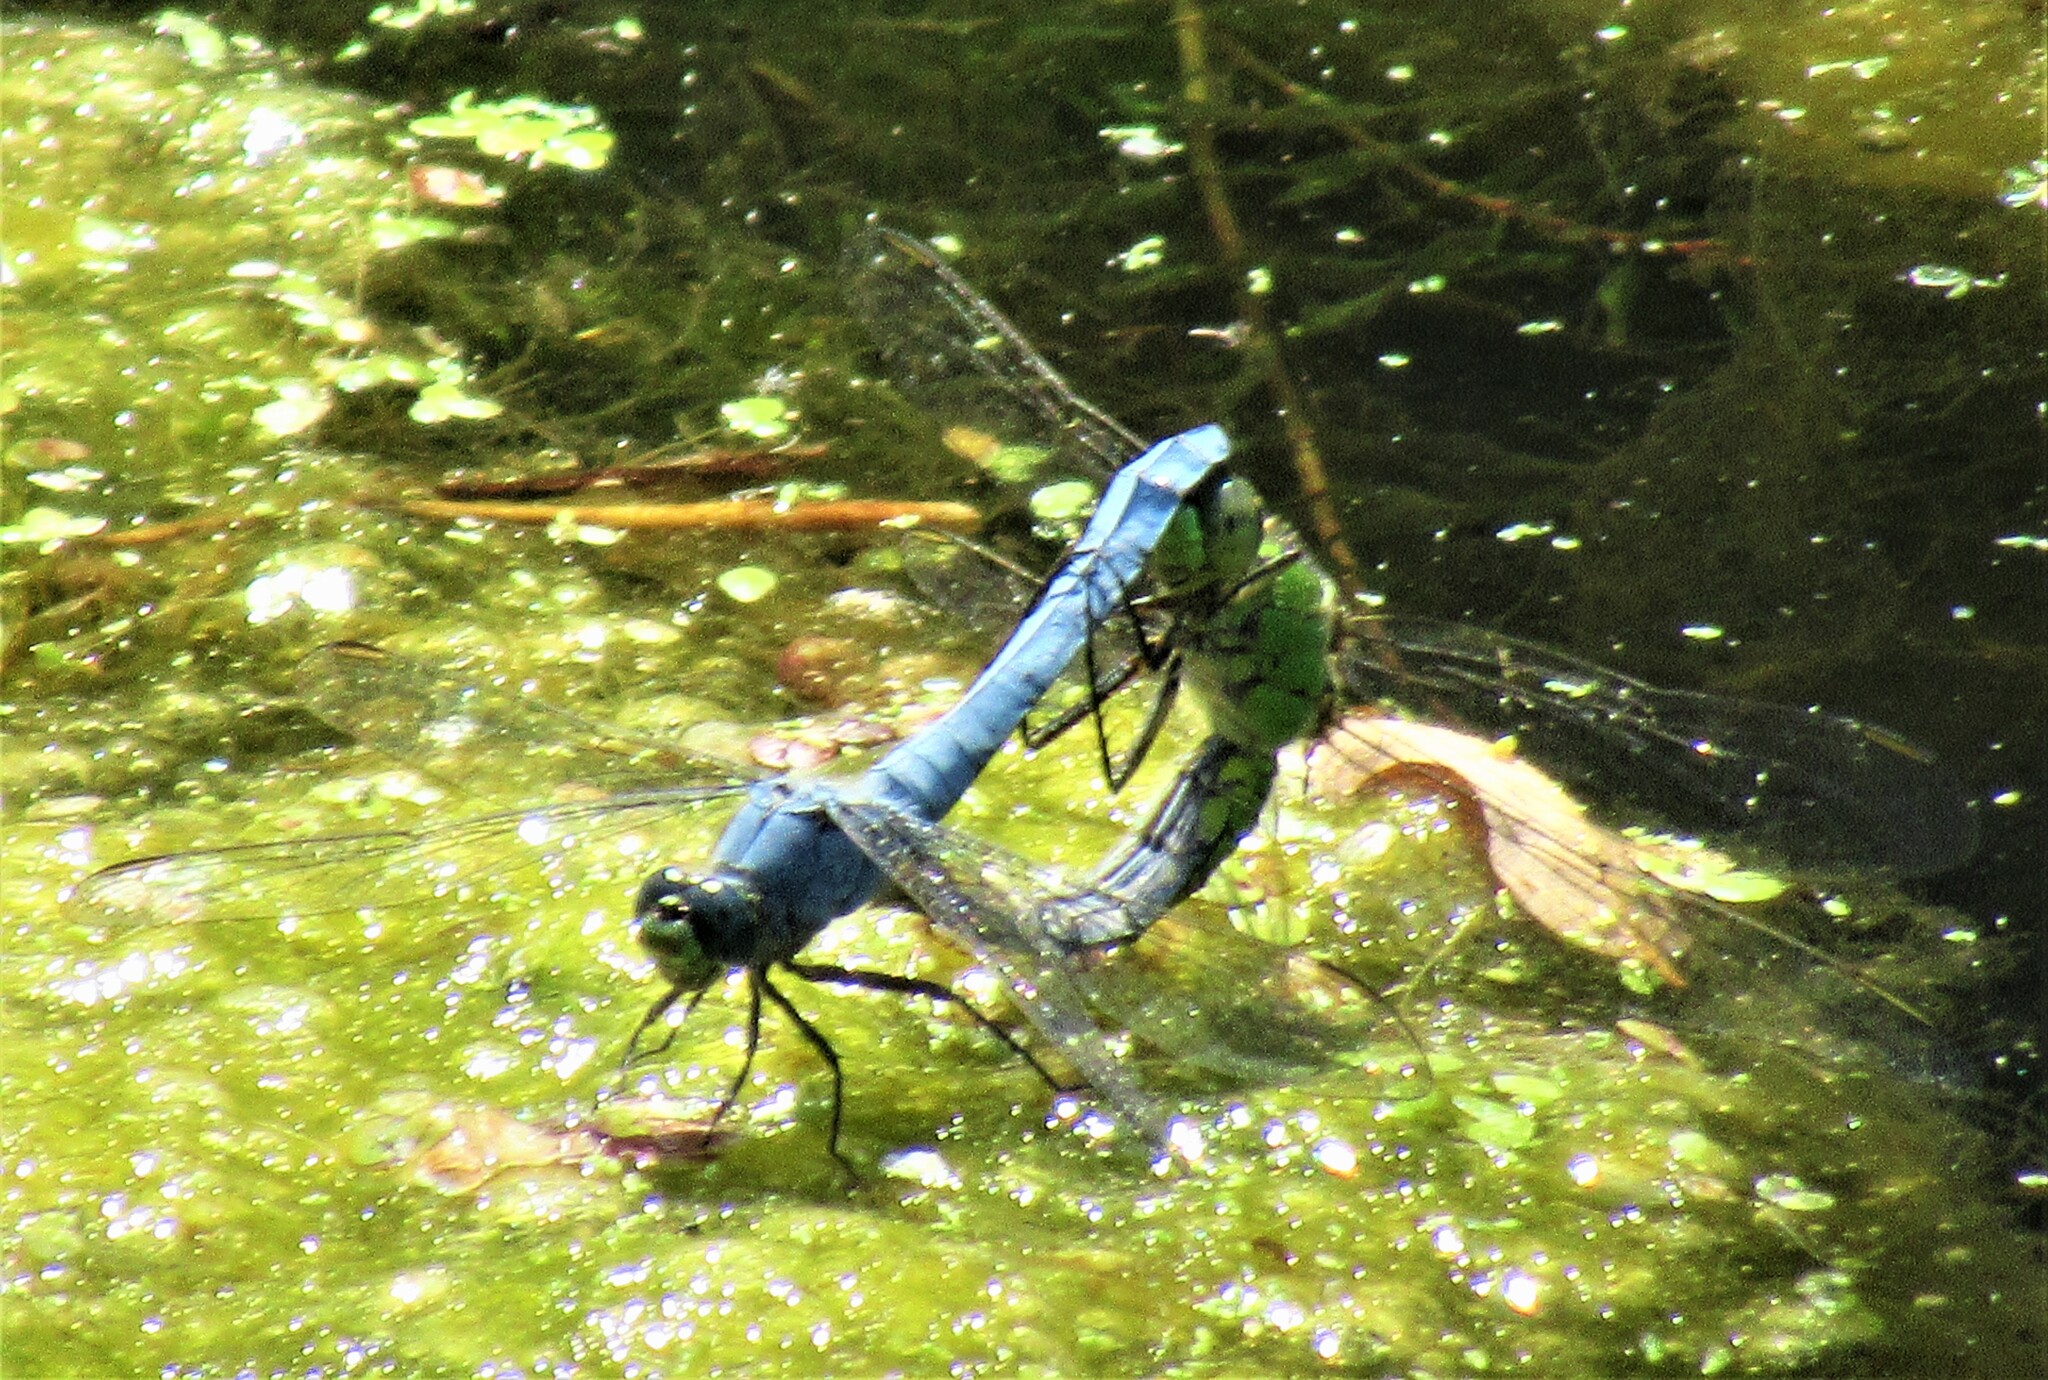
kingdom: Animalia
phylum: Arthropoda
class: Insecta
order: Odonata
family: Libellulidae
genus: Erythemis
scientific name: Erythemis collocata
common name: Western pondhawk
